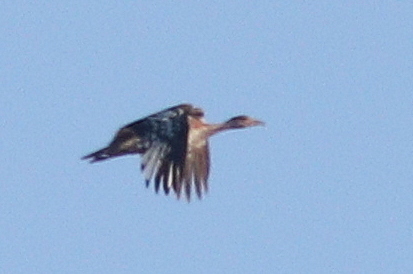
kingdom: Animalia
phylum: Chordata
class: Aves
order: Otidiformes
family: Otididae
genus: Neotis
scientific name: Neotis denhami
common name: Denham's bustard
